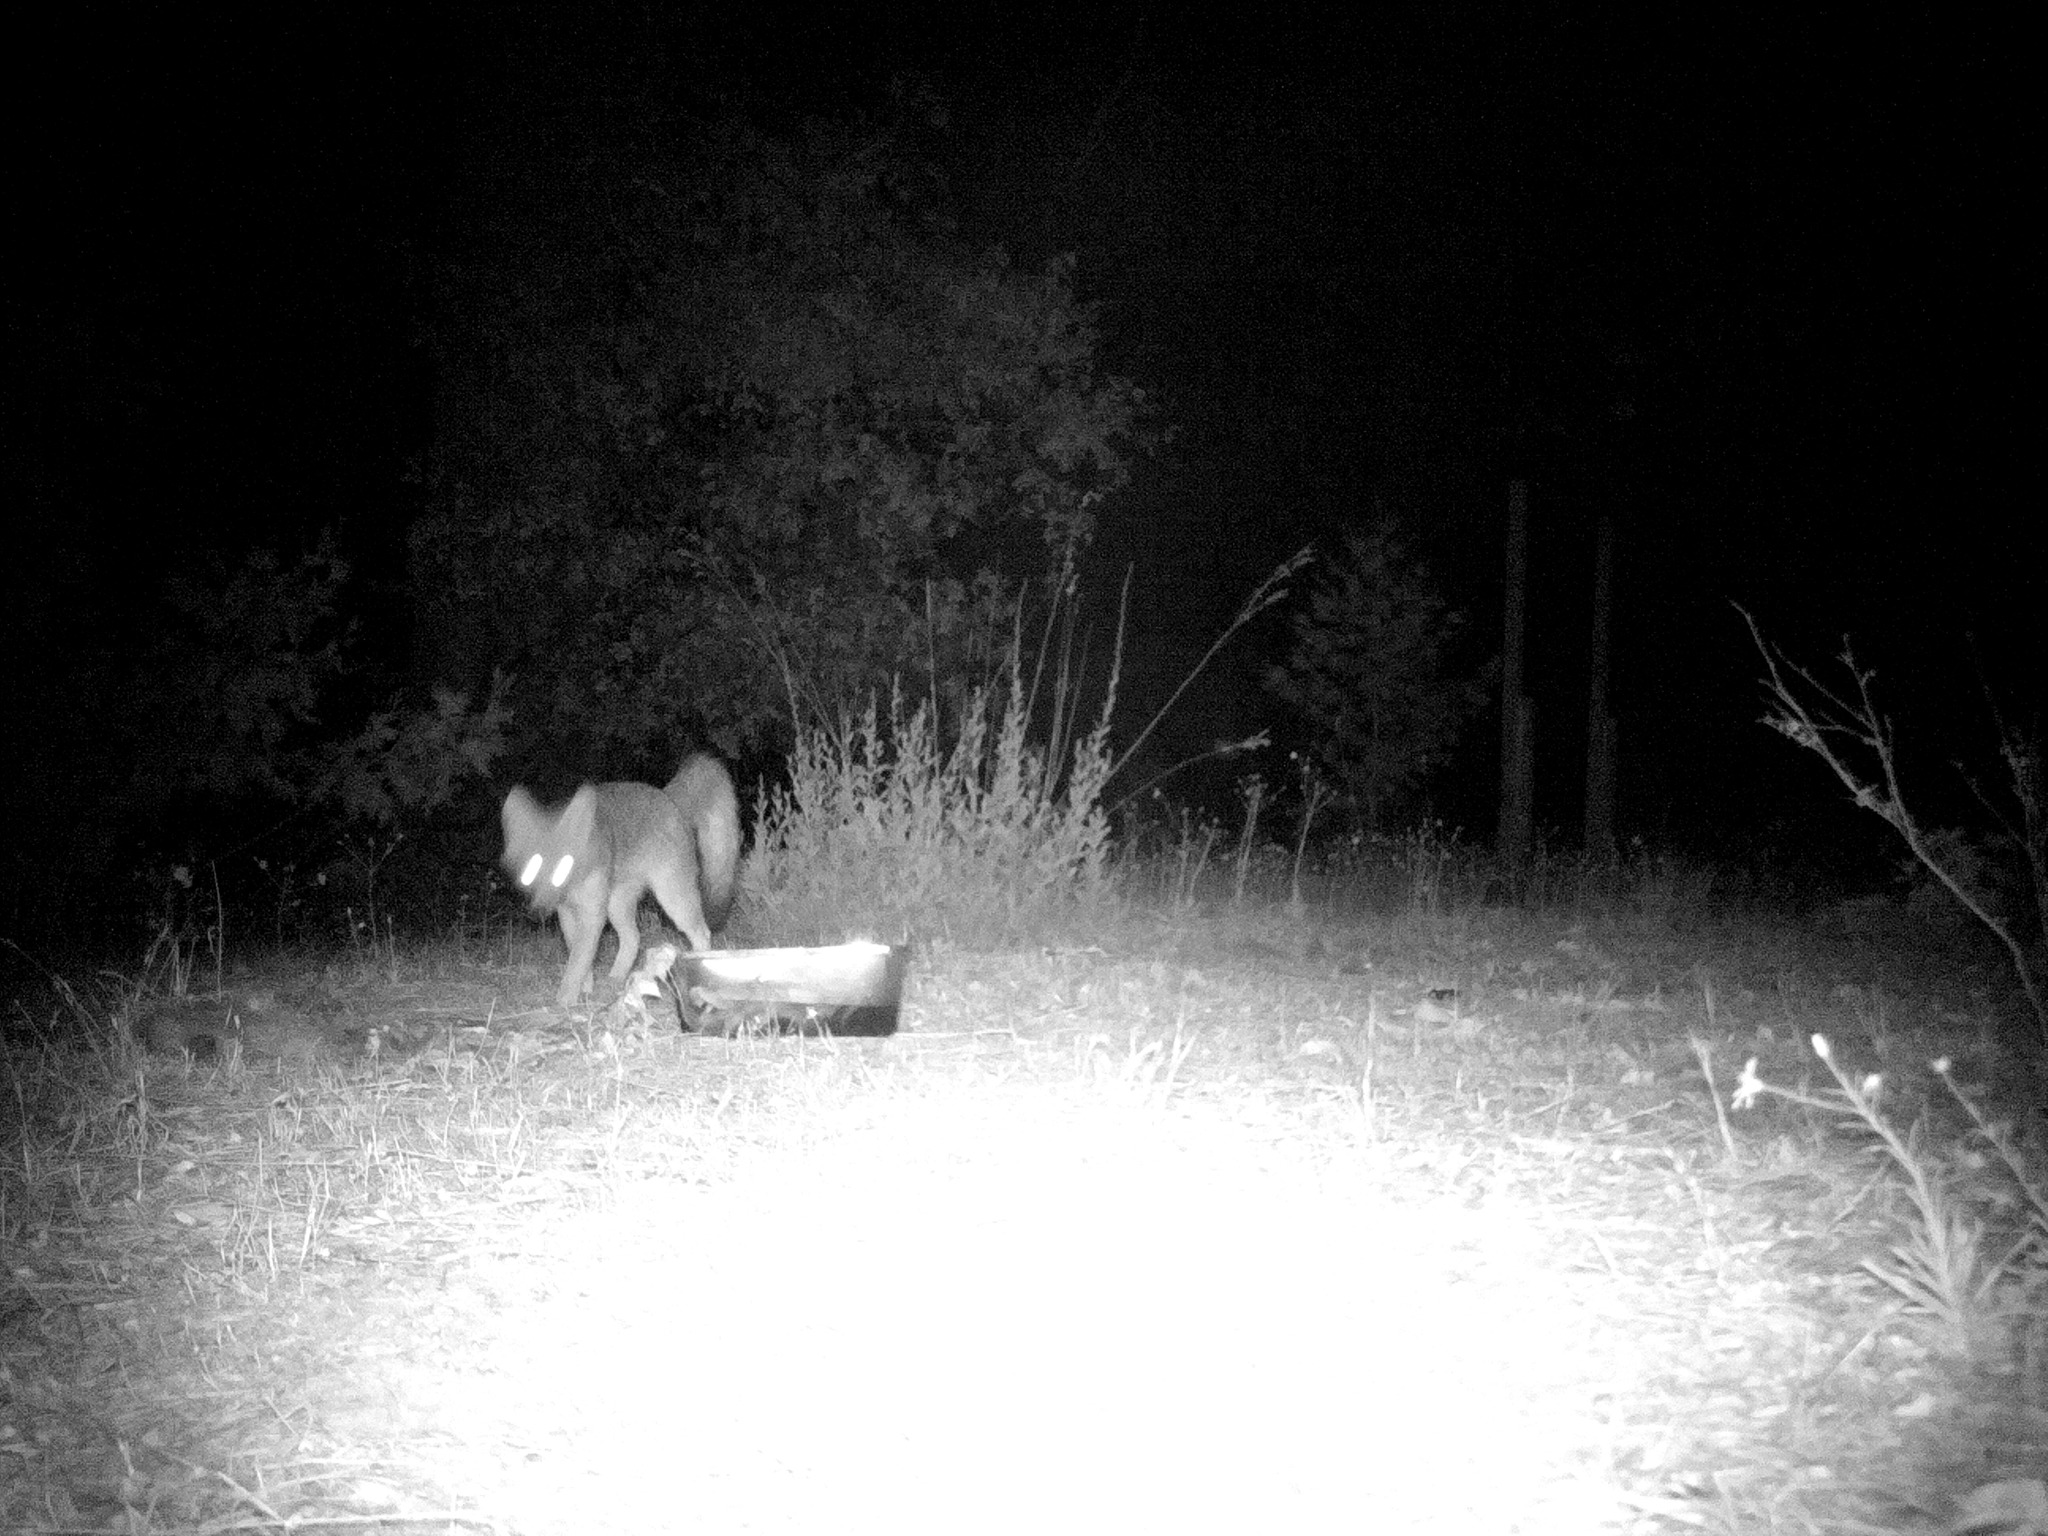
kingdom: Animalia
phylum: Chordata
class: Mammalia
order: Carnivora
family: Canidae
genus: Urocyon
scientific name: Urocyon cinereoargenteus
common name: Gray fox
